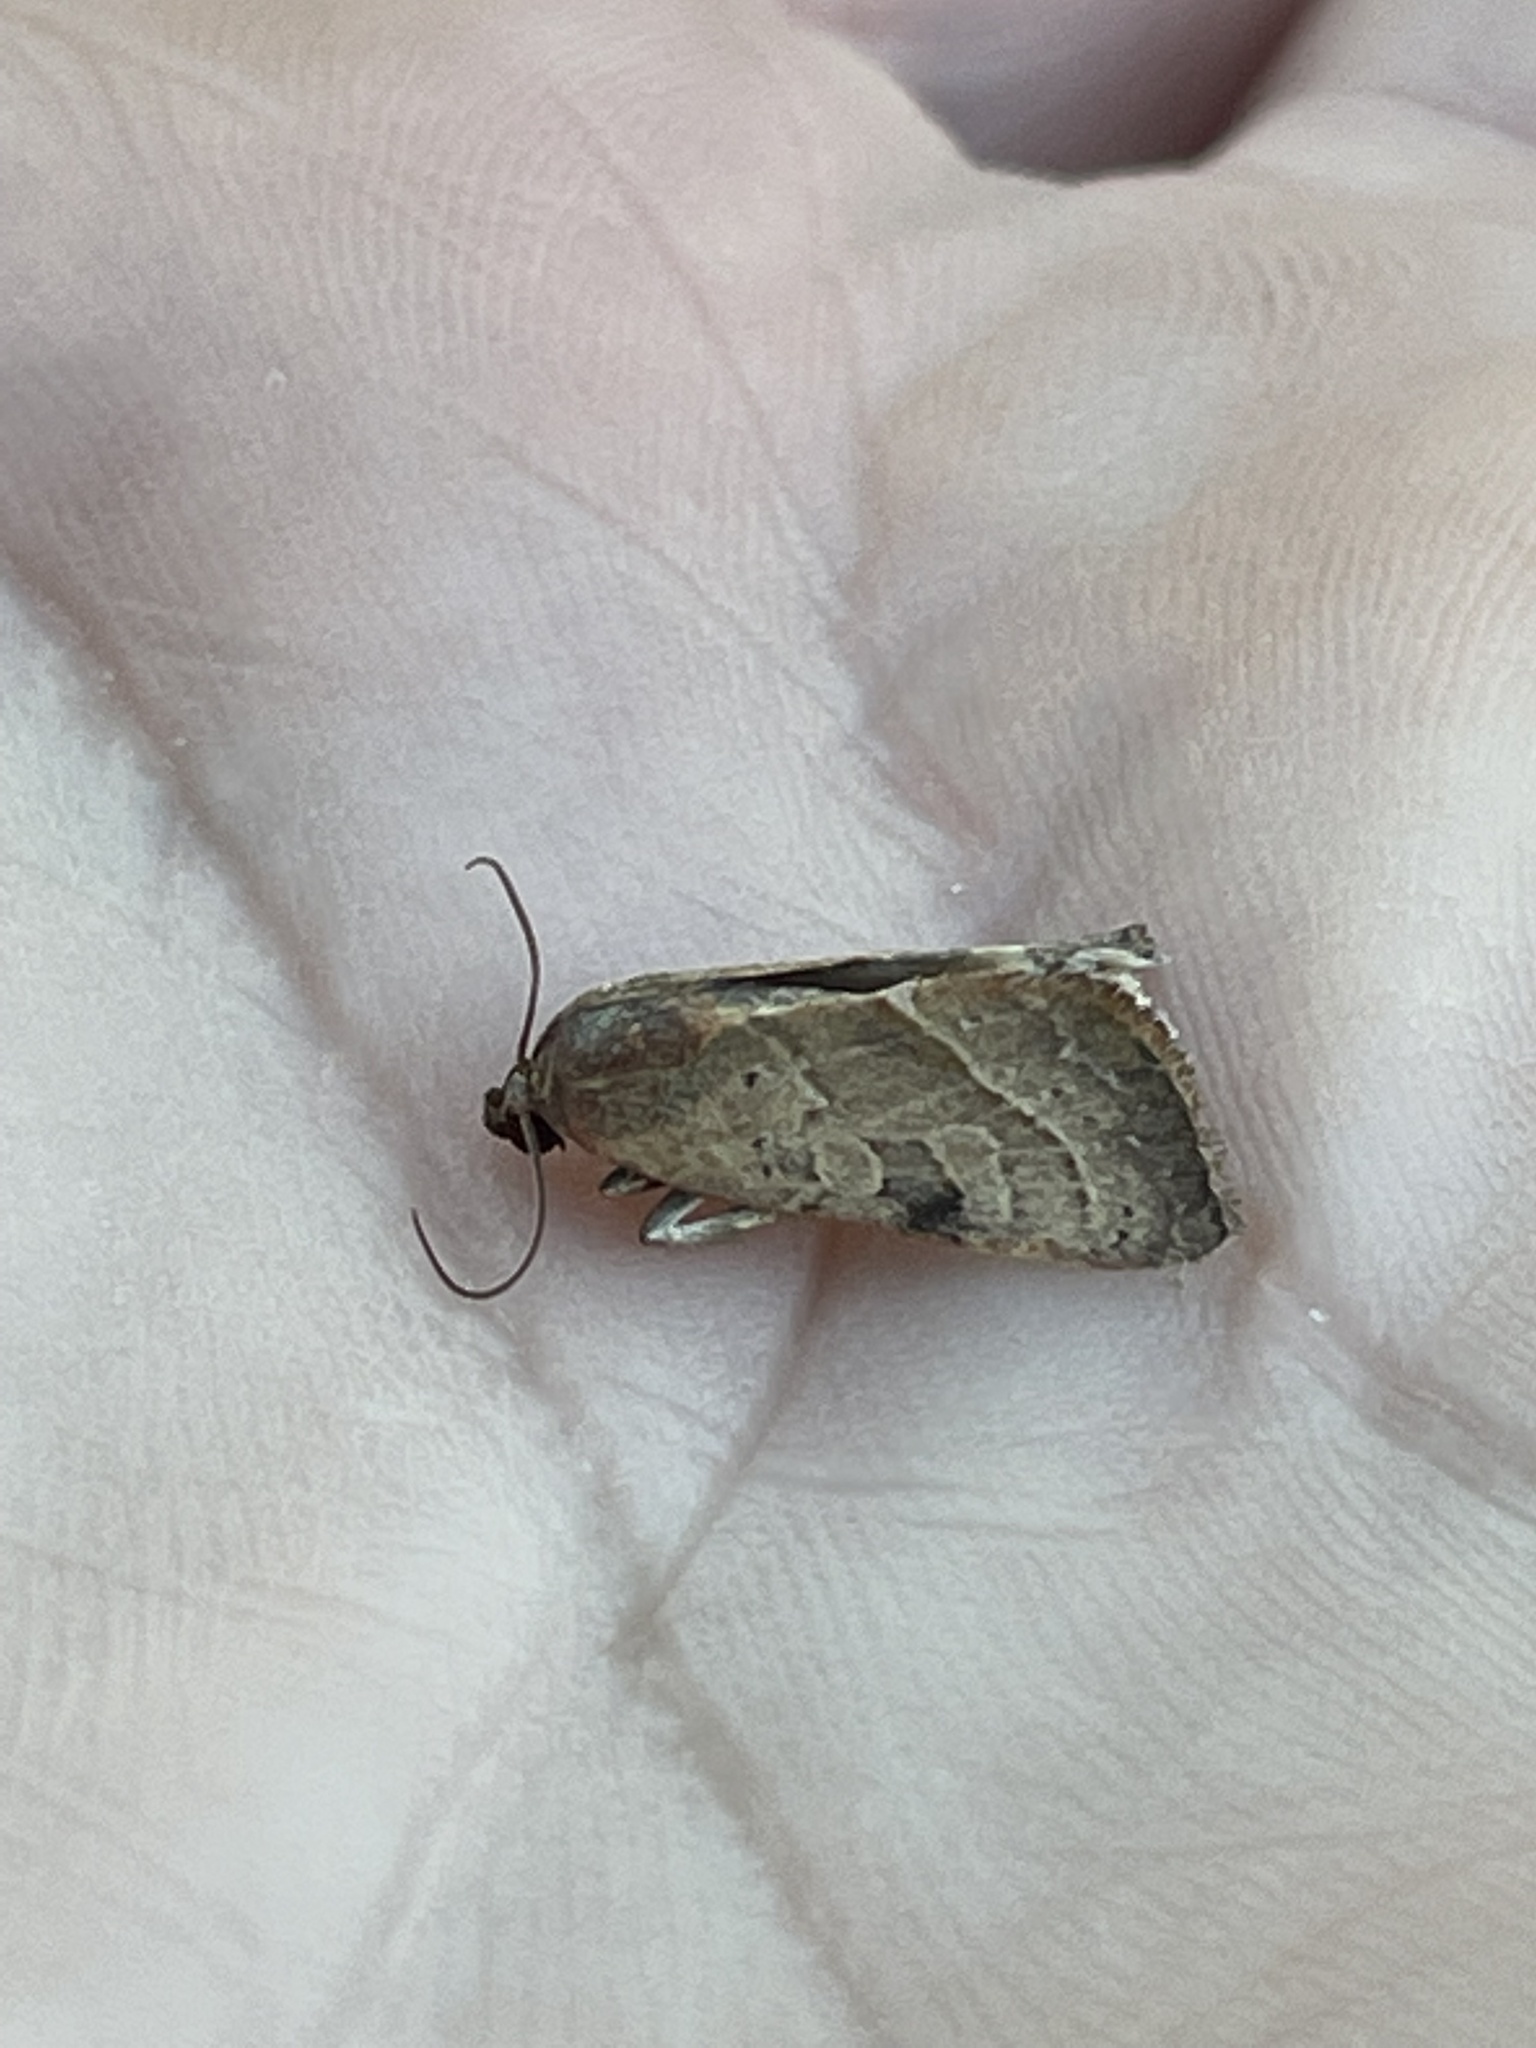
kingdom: Animalia
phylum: Arthropoda
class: Insecta
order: Lepidoptera
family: Noctuidae
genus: Galgula
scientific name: Galgula partita
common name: Wedgeling
